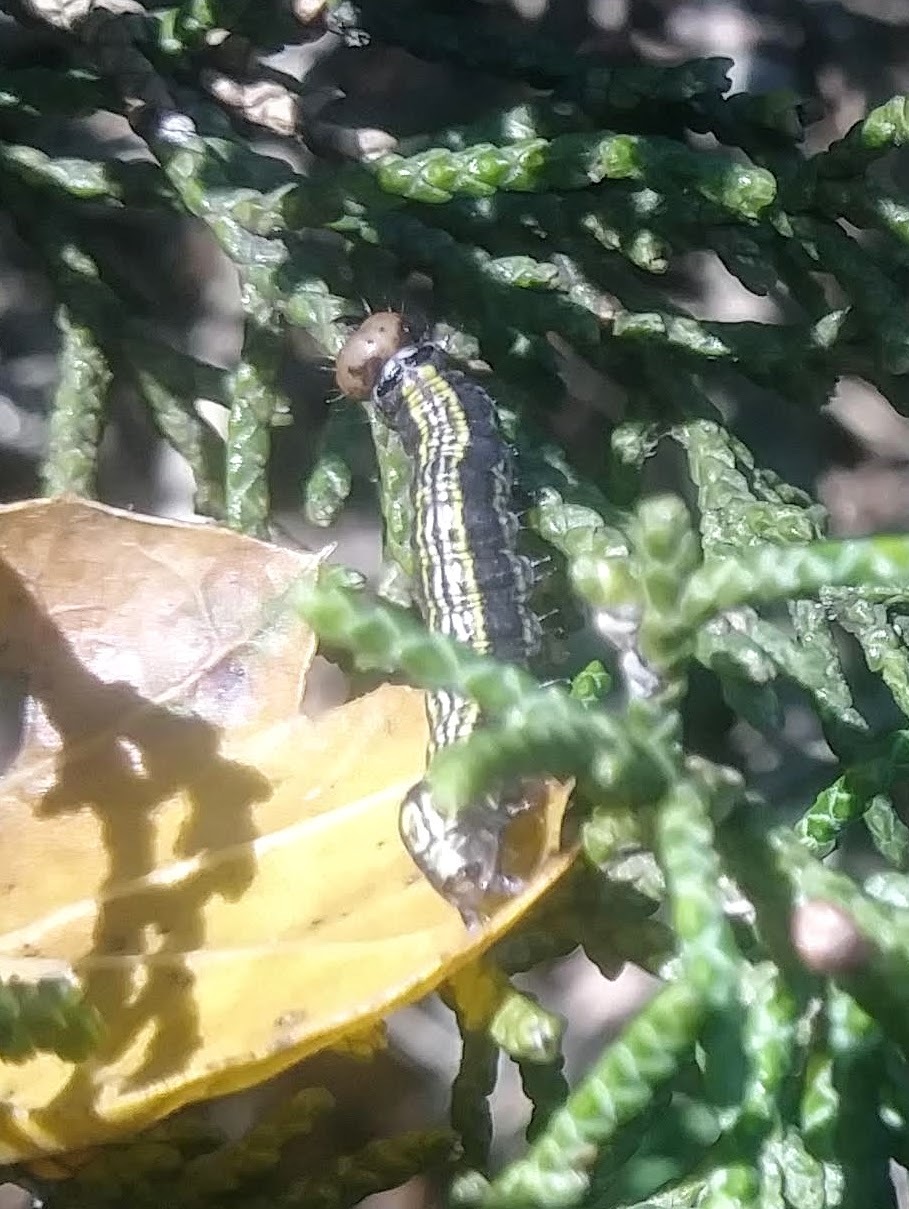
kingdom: Animalia
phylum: Arthropoda
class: Insecta
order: Lepidoptera
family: Notodontidae
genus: Phryganidia
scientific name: Phryganidia californica
